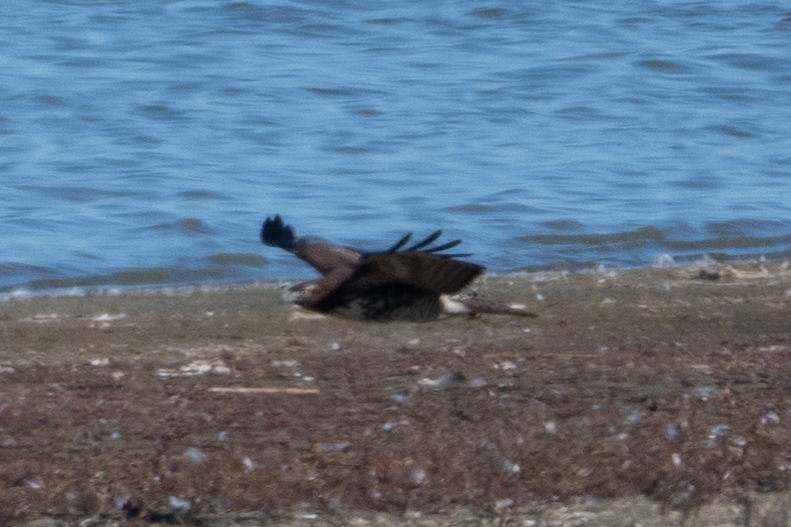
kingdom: Animalia
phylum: Chordata
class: Aves
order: Accipitriformes
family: Accipitridae
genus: Buteo
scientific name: Buteo jamaicensis
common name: Red-tailed hawk
